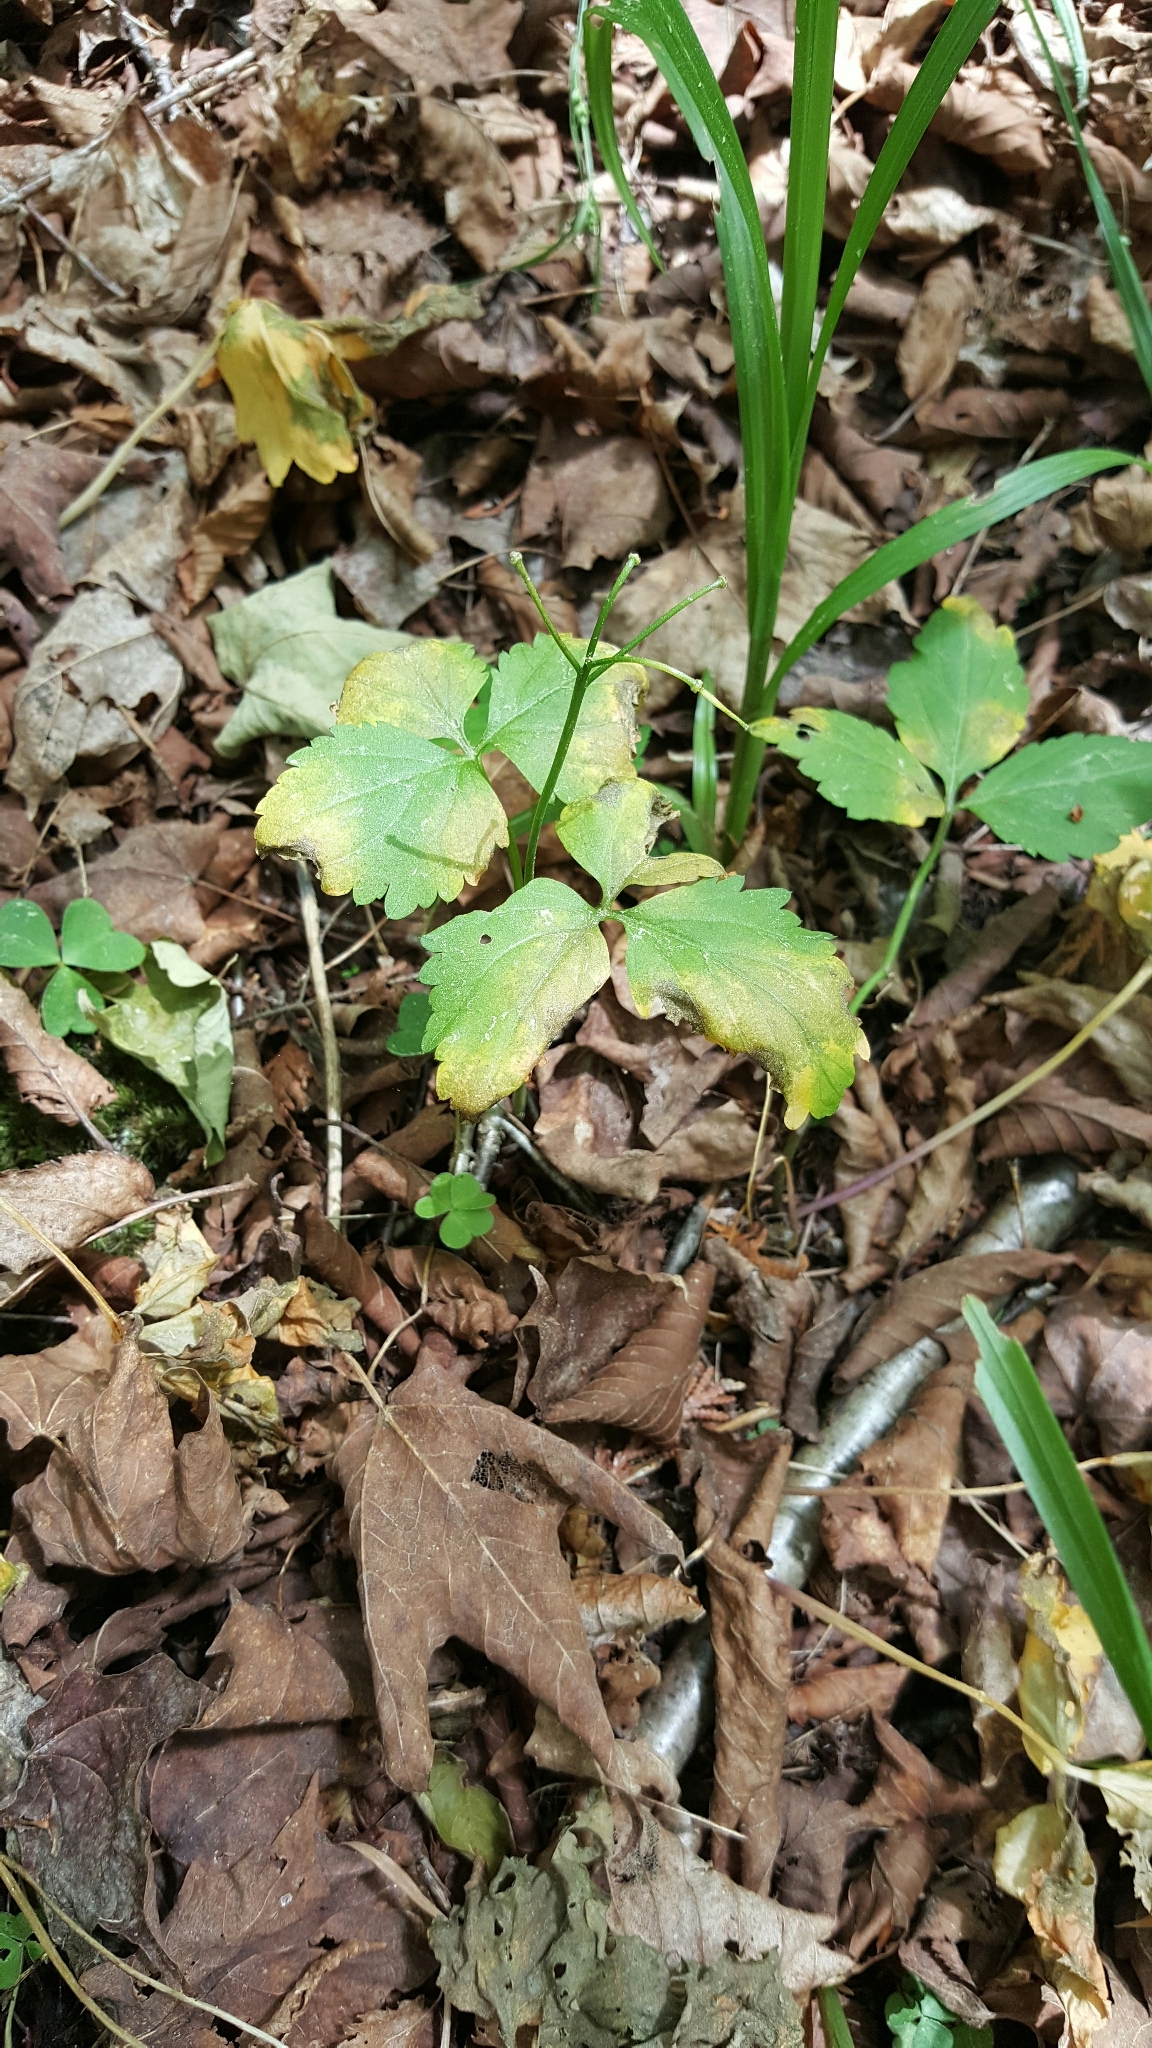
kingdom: Plantae
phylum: Tracheophyta
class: Magnoliopsida
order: Brassicales
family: Brassicaceae
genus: Cardamine
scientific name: Cardamine diphylla
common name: Broad-leaved toothwort
